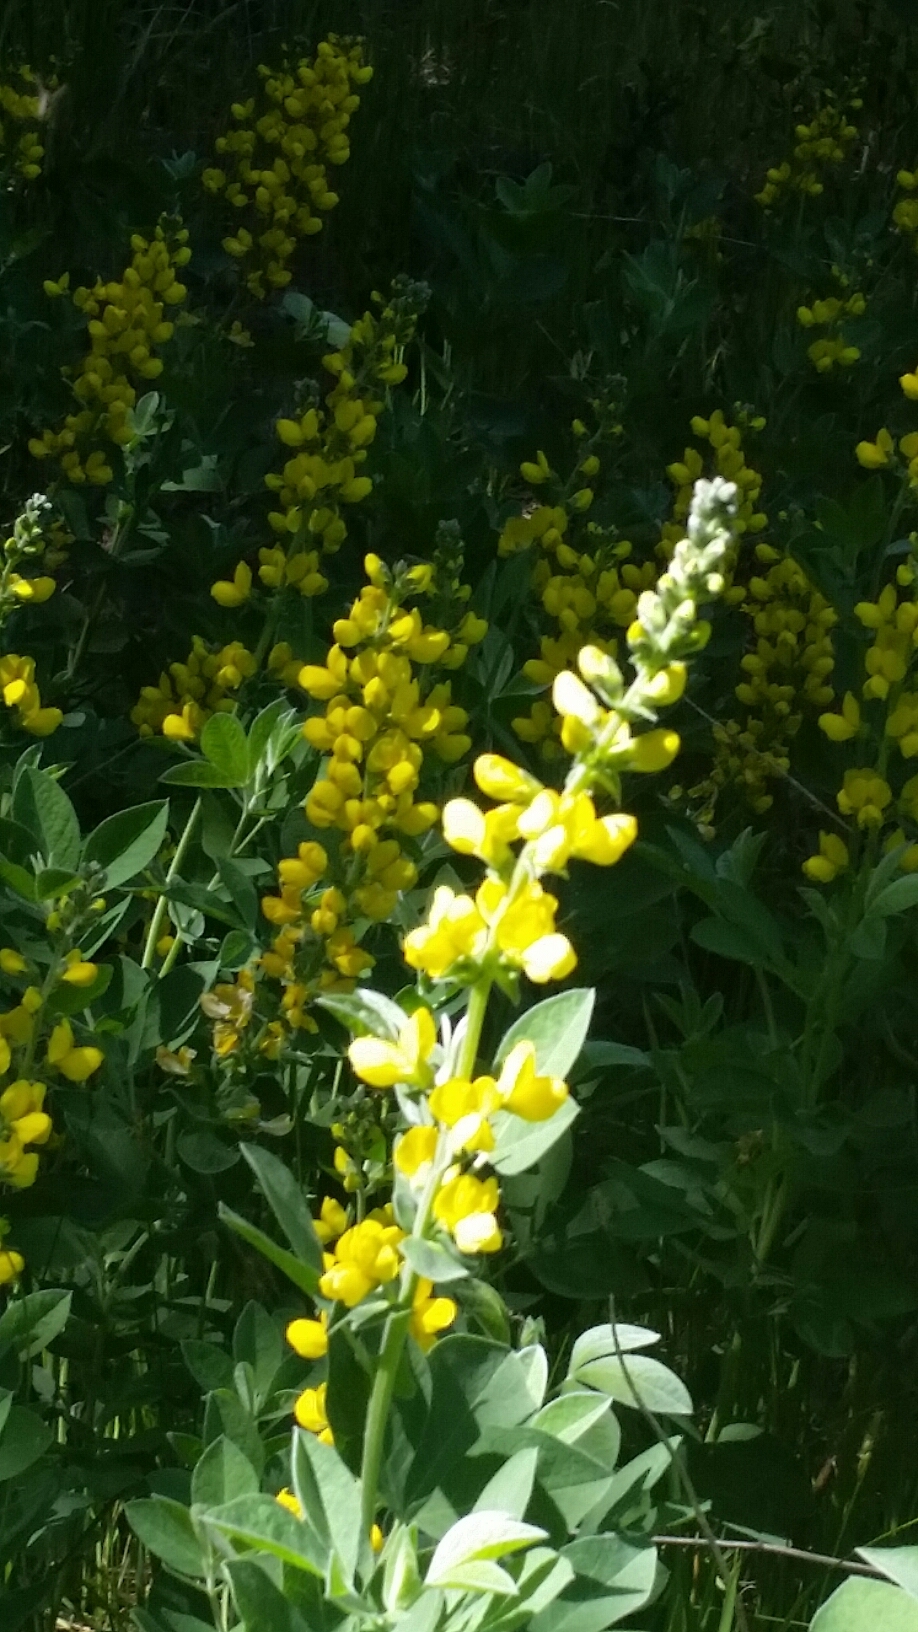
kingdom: Plantae
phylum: Tracheophyta
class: Magnoliopsida
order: Fabales
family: Fabaceae
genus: Thermopsis
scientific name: Thermopsis californica
